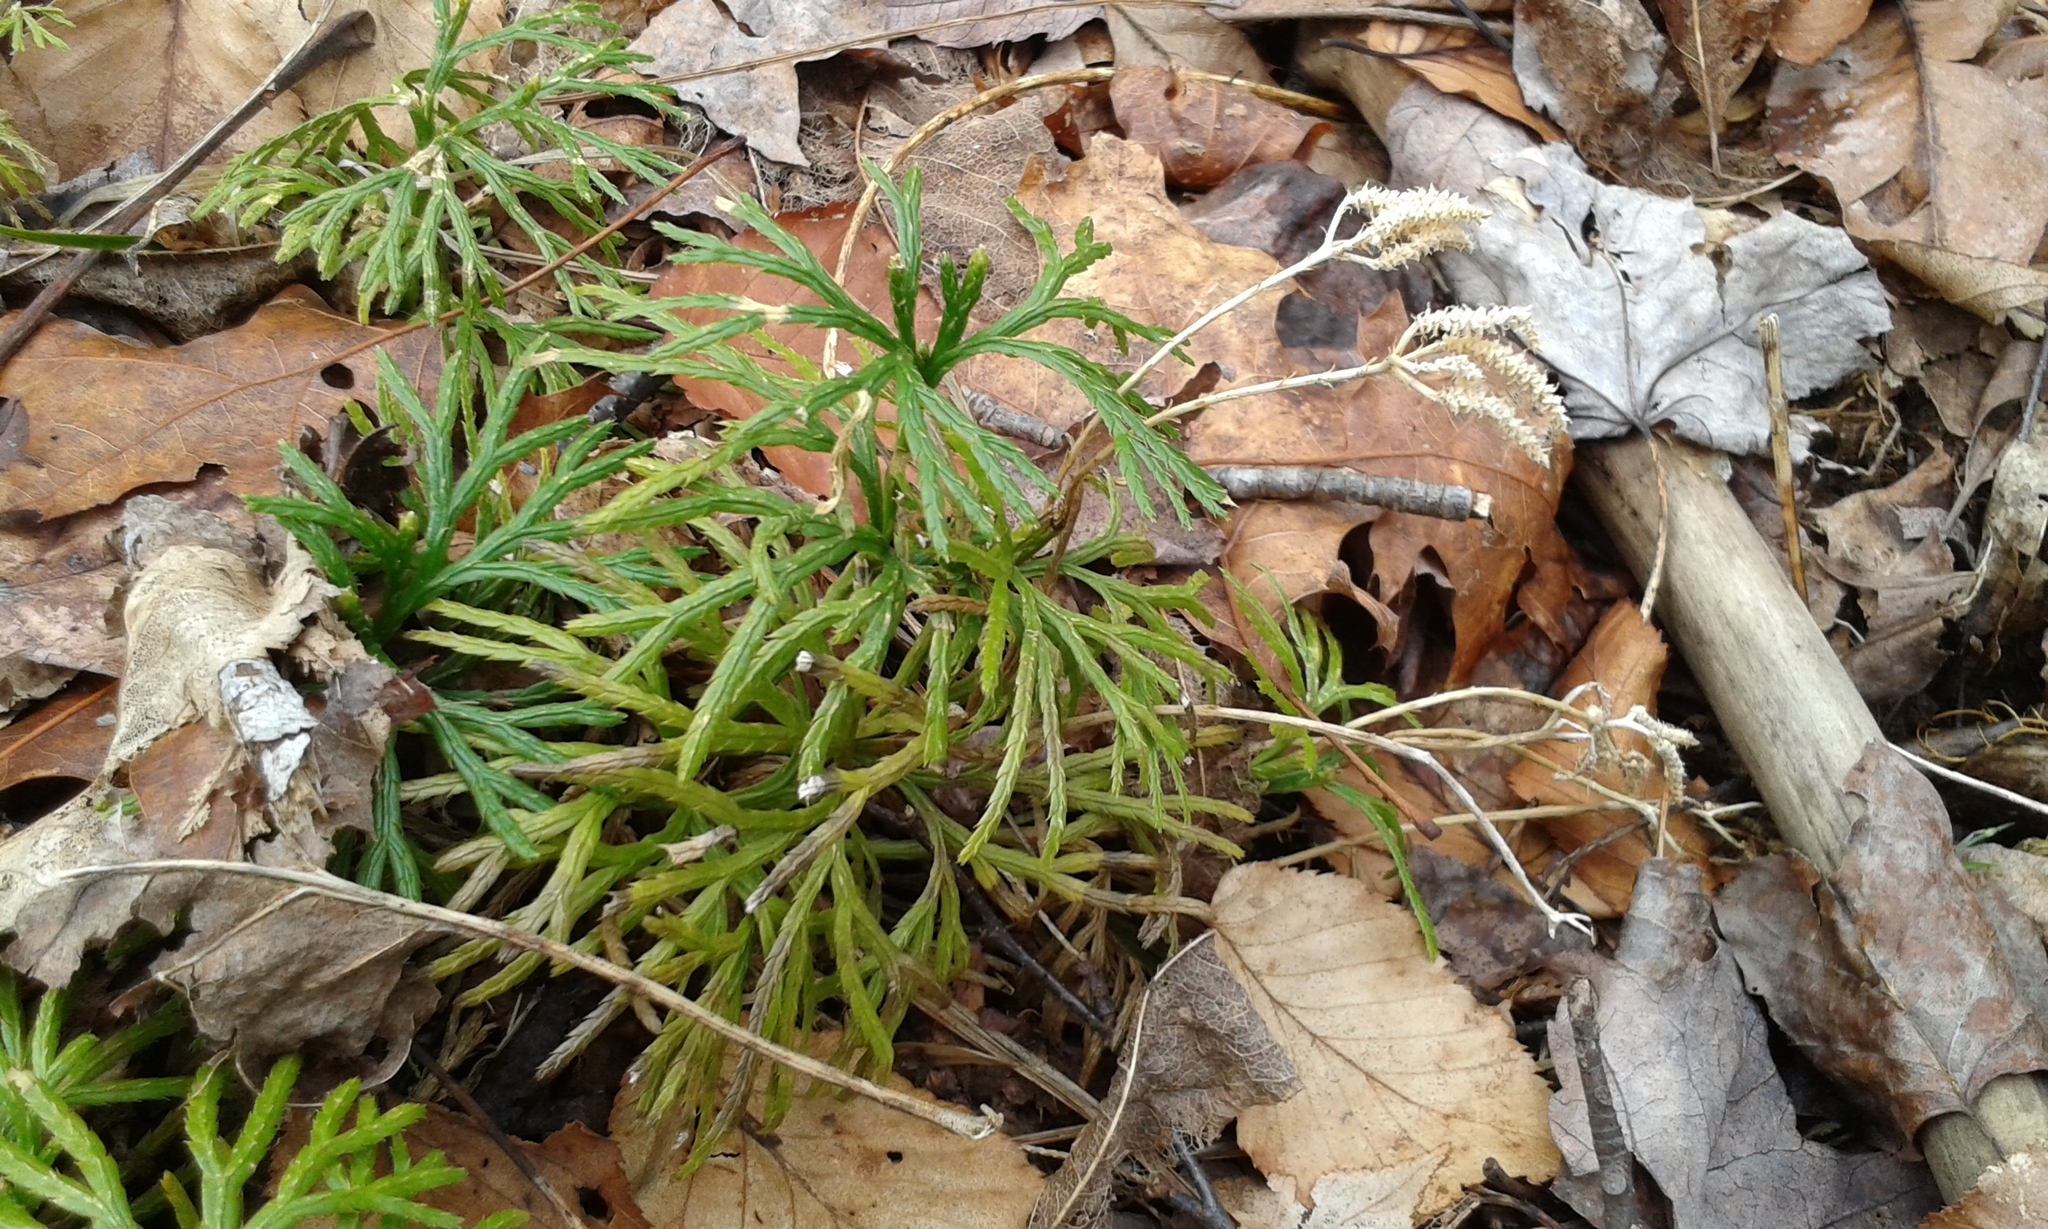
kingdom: Plantae
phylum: Tracheophyta
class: Lycopodiopsida
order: Lycopodiales
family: Lycopodiaceae
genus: Diphasiastrum
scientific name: Diphasiastrum digitatum
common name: Southern running-pine
